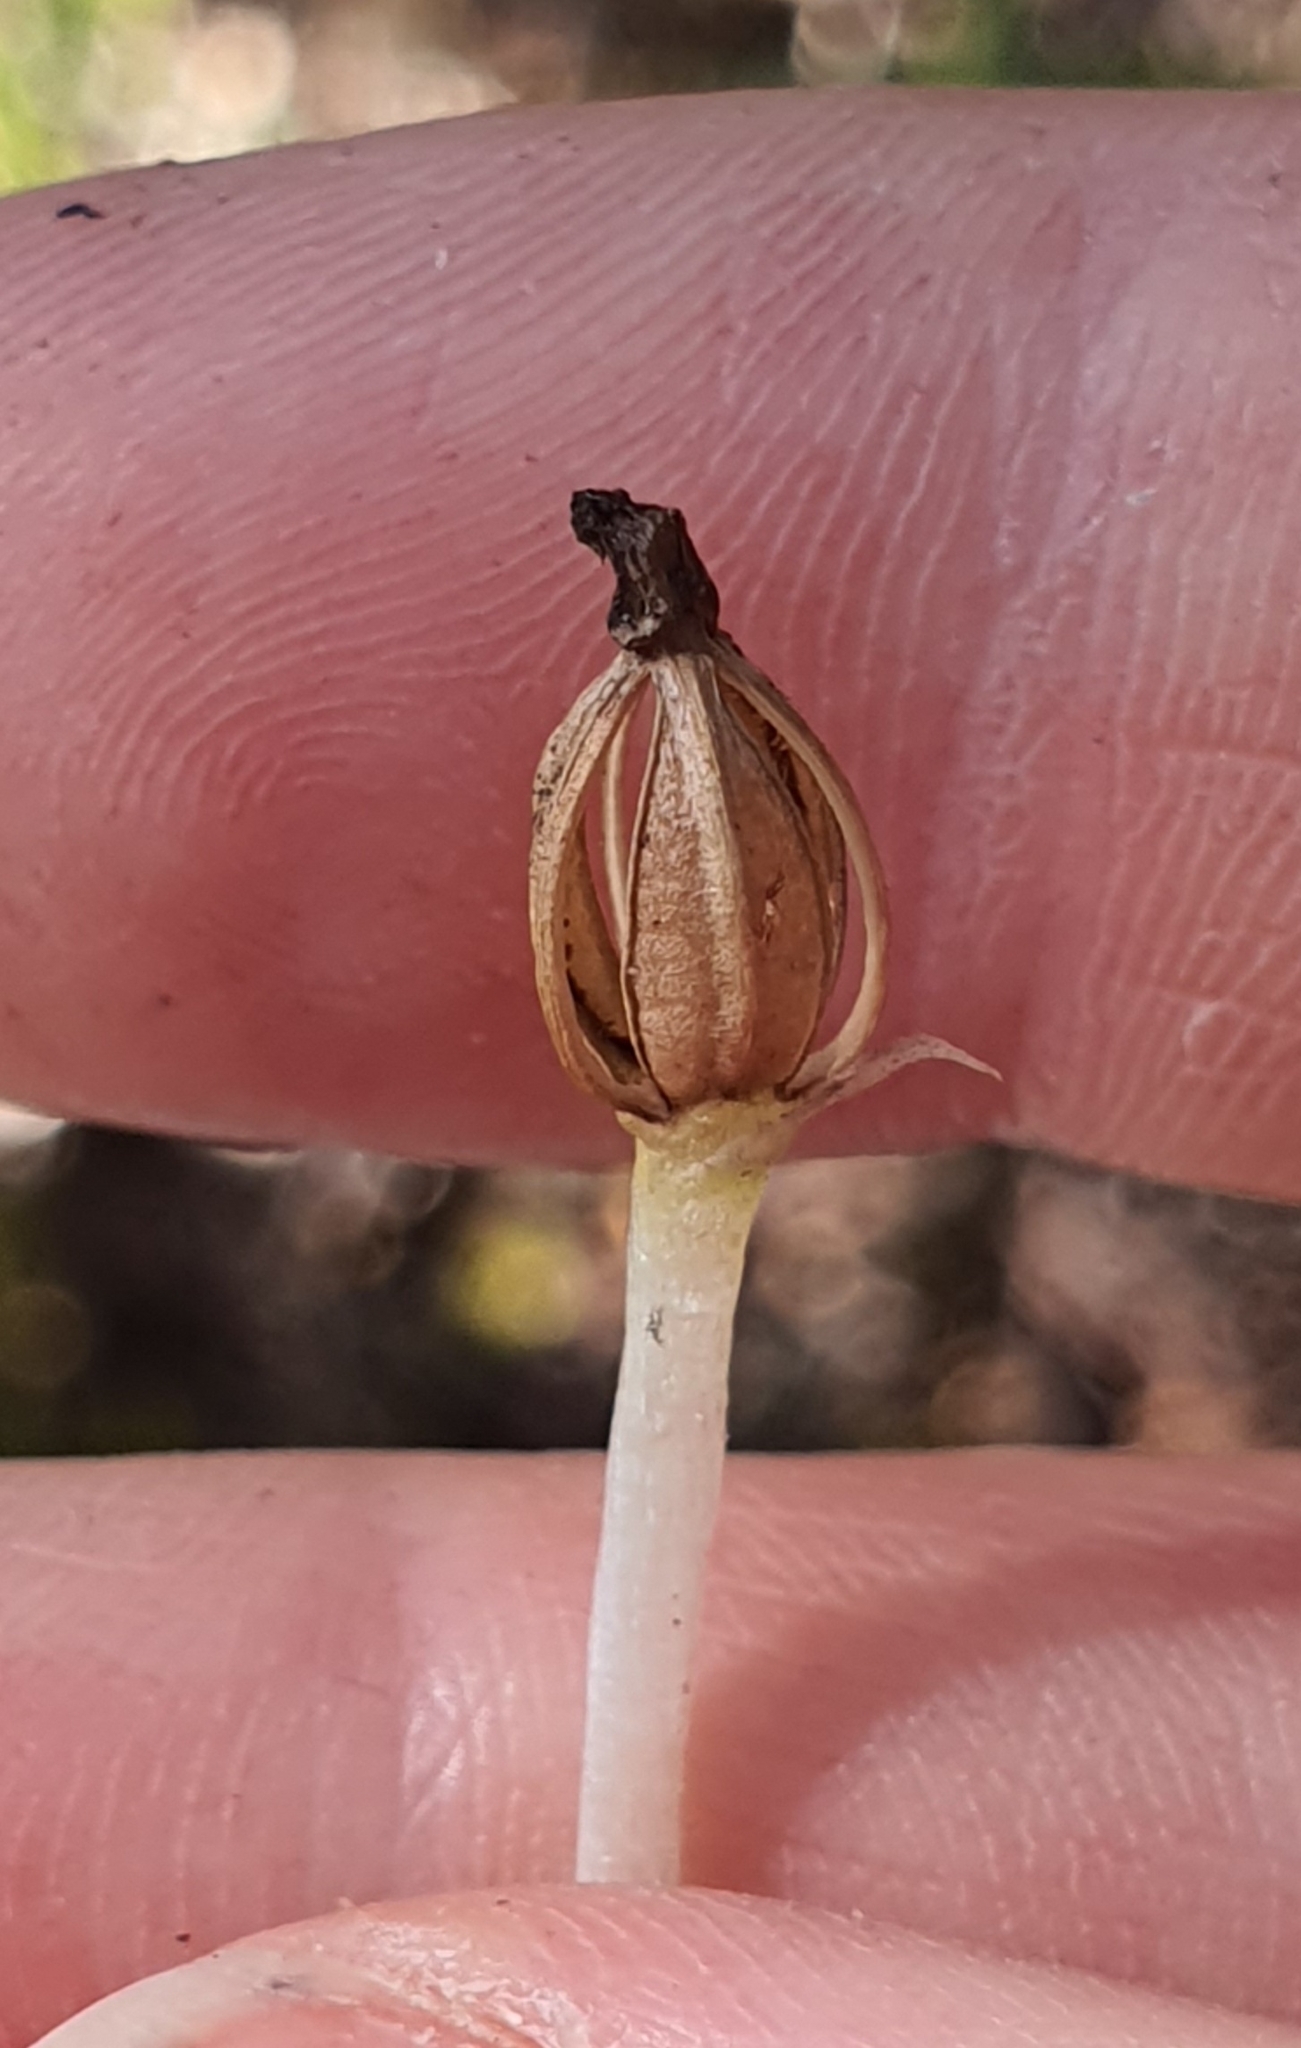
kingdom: Plantae
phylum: Tracheophyta
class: Liliopsida
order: Asparagales
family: Orchidaceae
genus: Corybas
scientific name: Corybas cheesemanii
